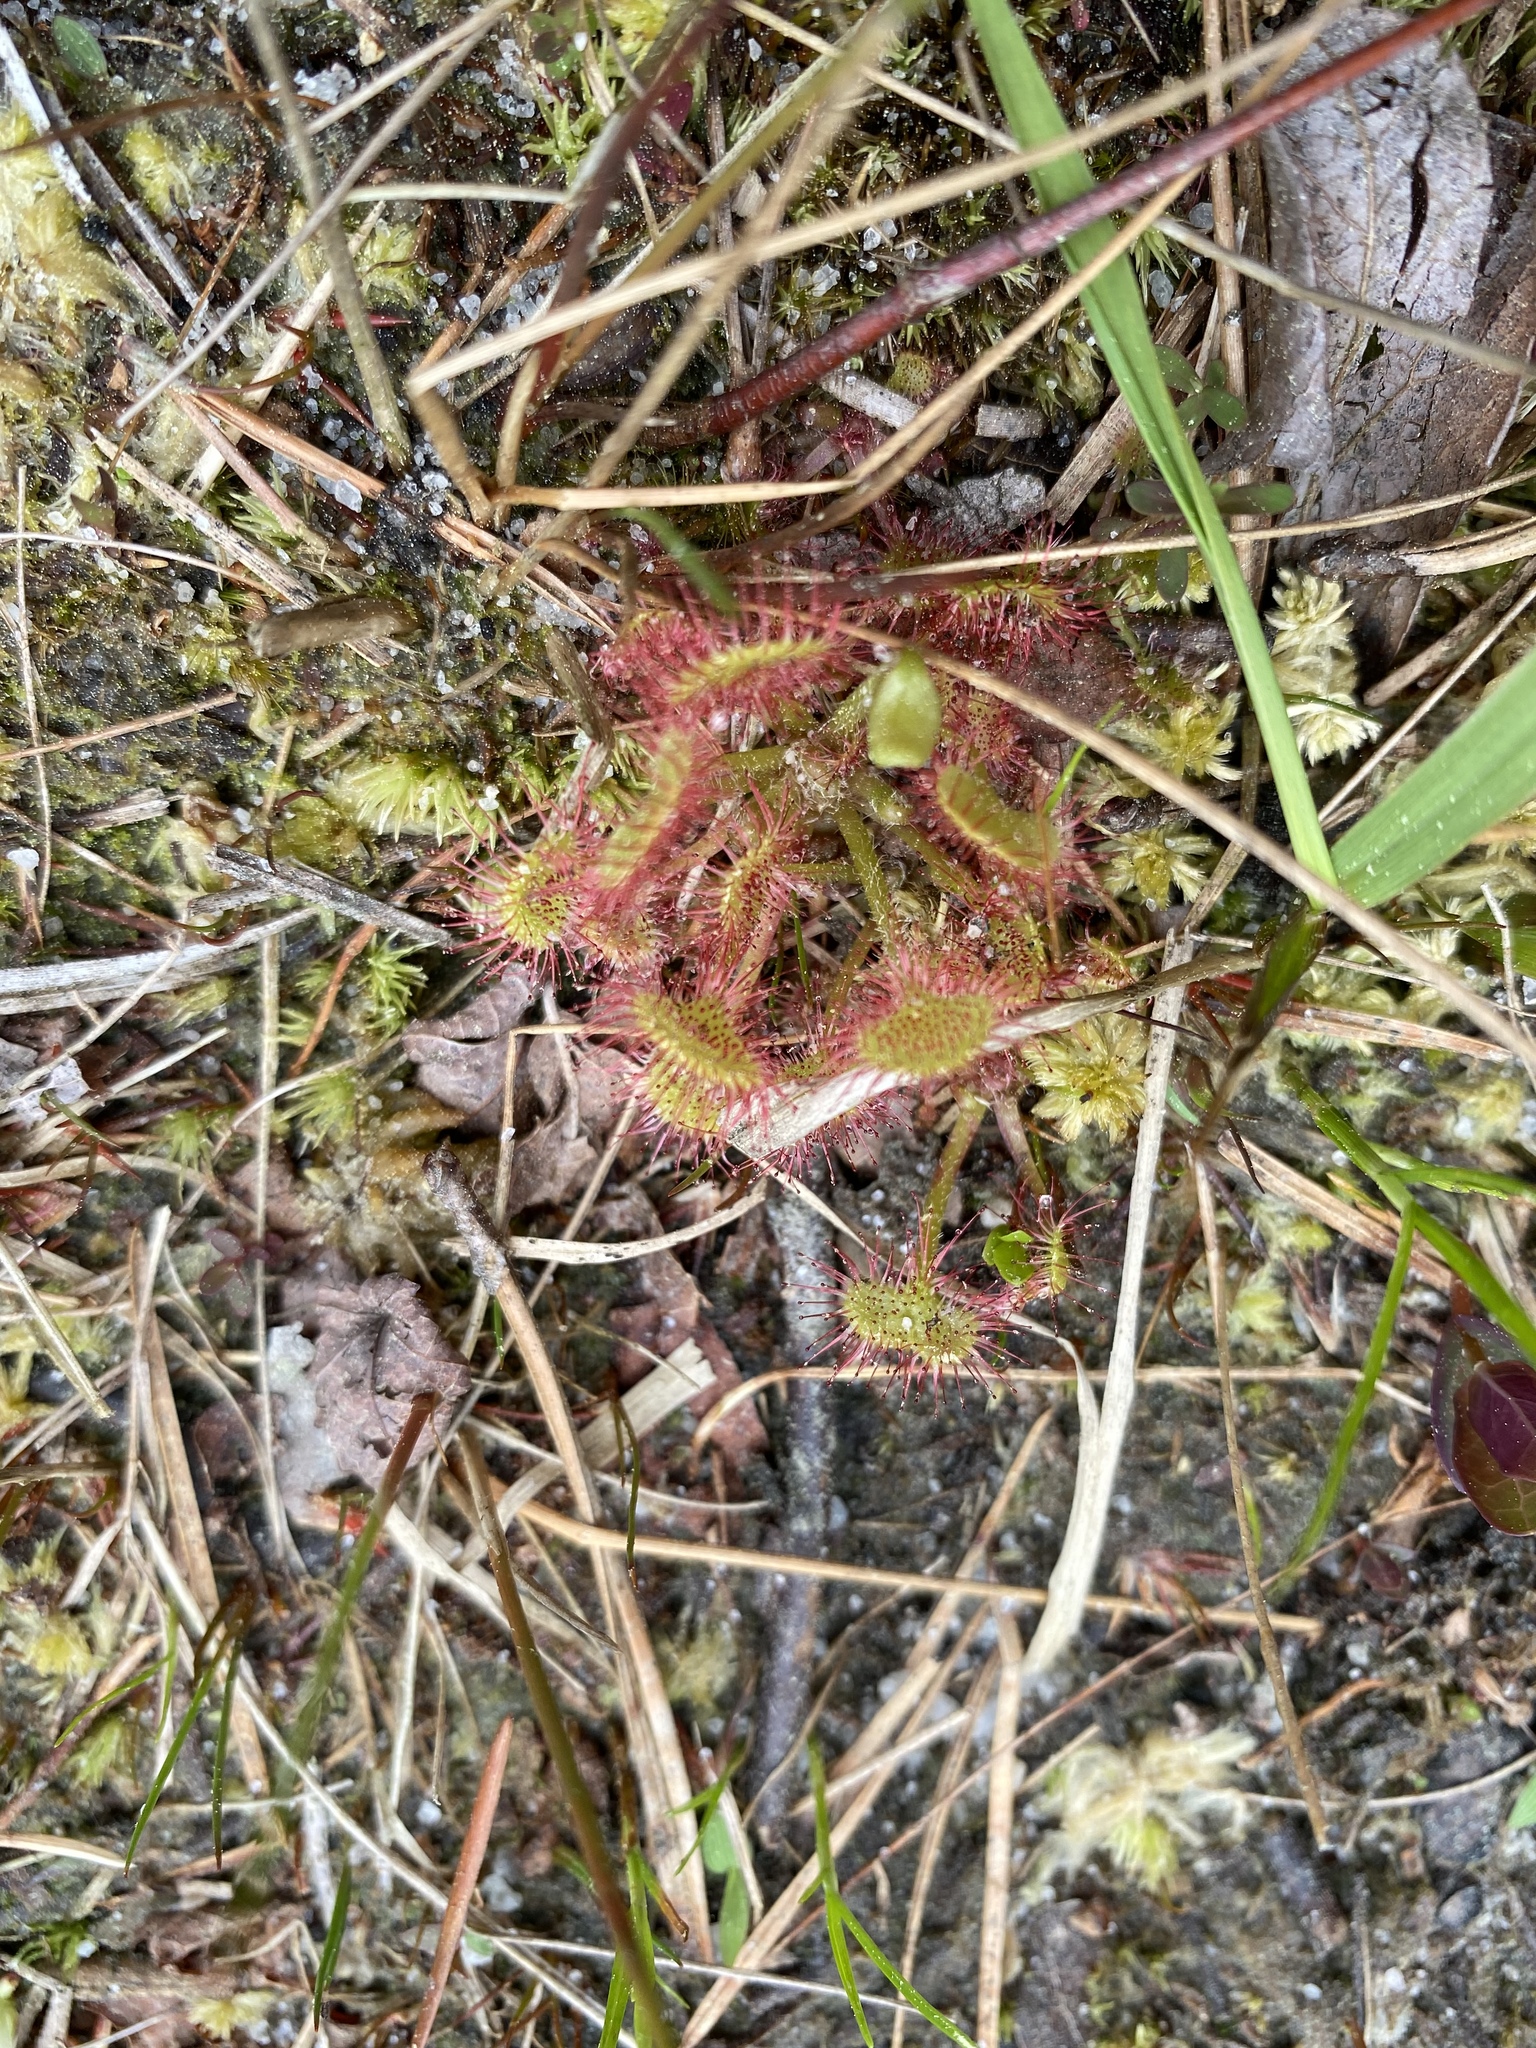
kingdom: Plantae
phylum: Tracheophyta
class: Magnoliopsida
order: Caryophyllales
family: Droseraceae
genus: Drosera
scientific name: Drosera rotundifolia
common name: Round-leaved sundew
